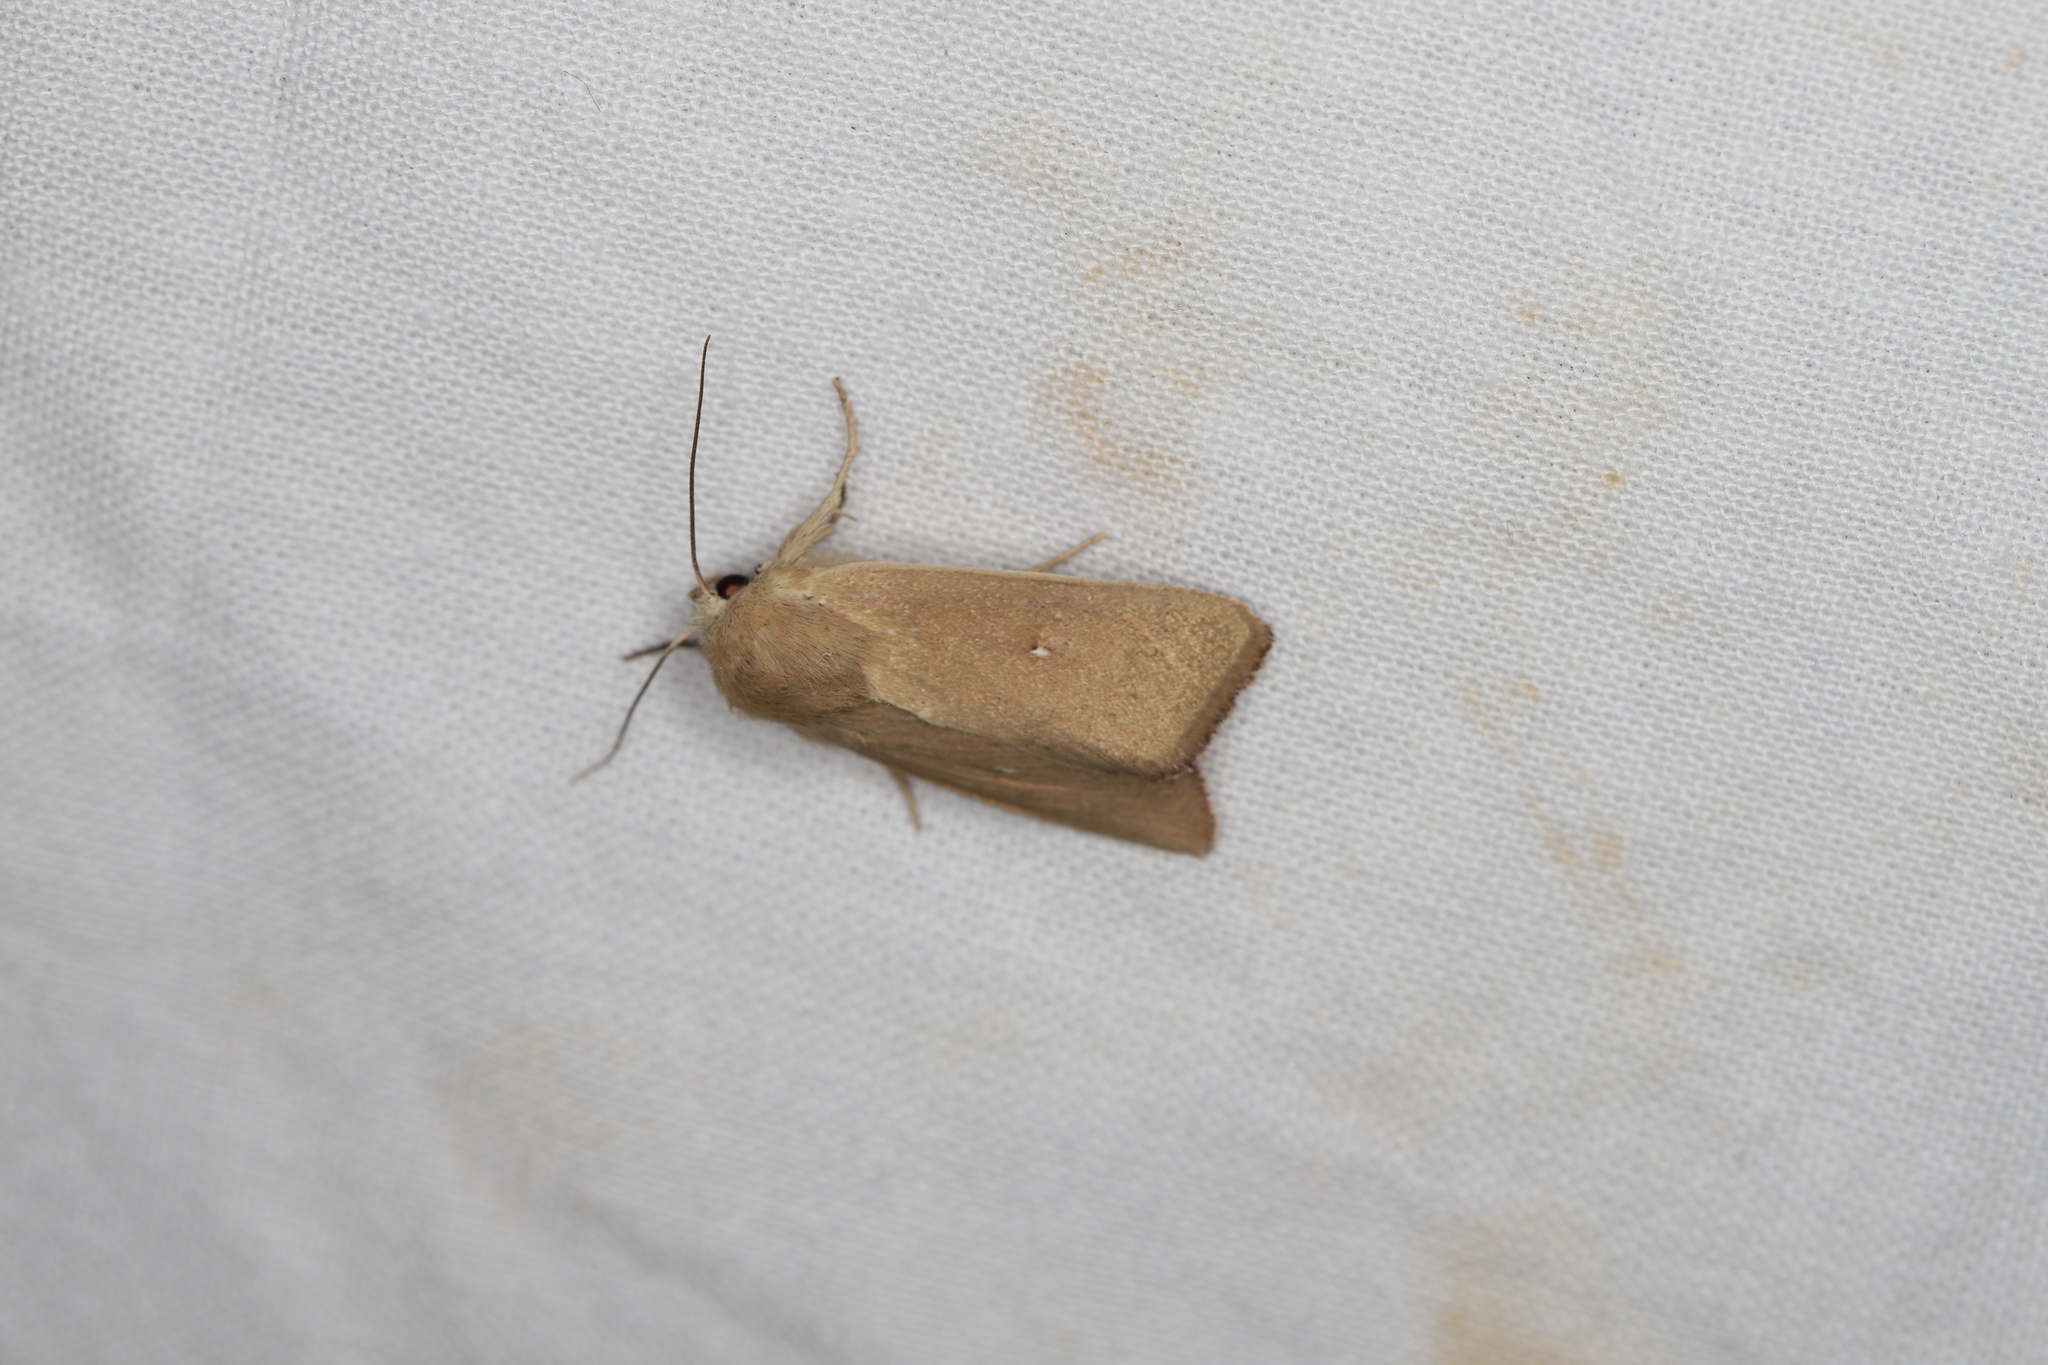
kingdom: Animalia
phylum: Arthropoda
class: Insecta
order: Lepidoptera
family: Noctuidae
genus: Mythimna
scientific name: Mythimna sicula
